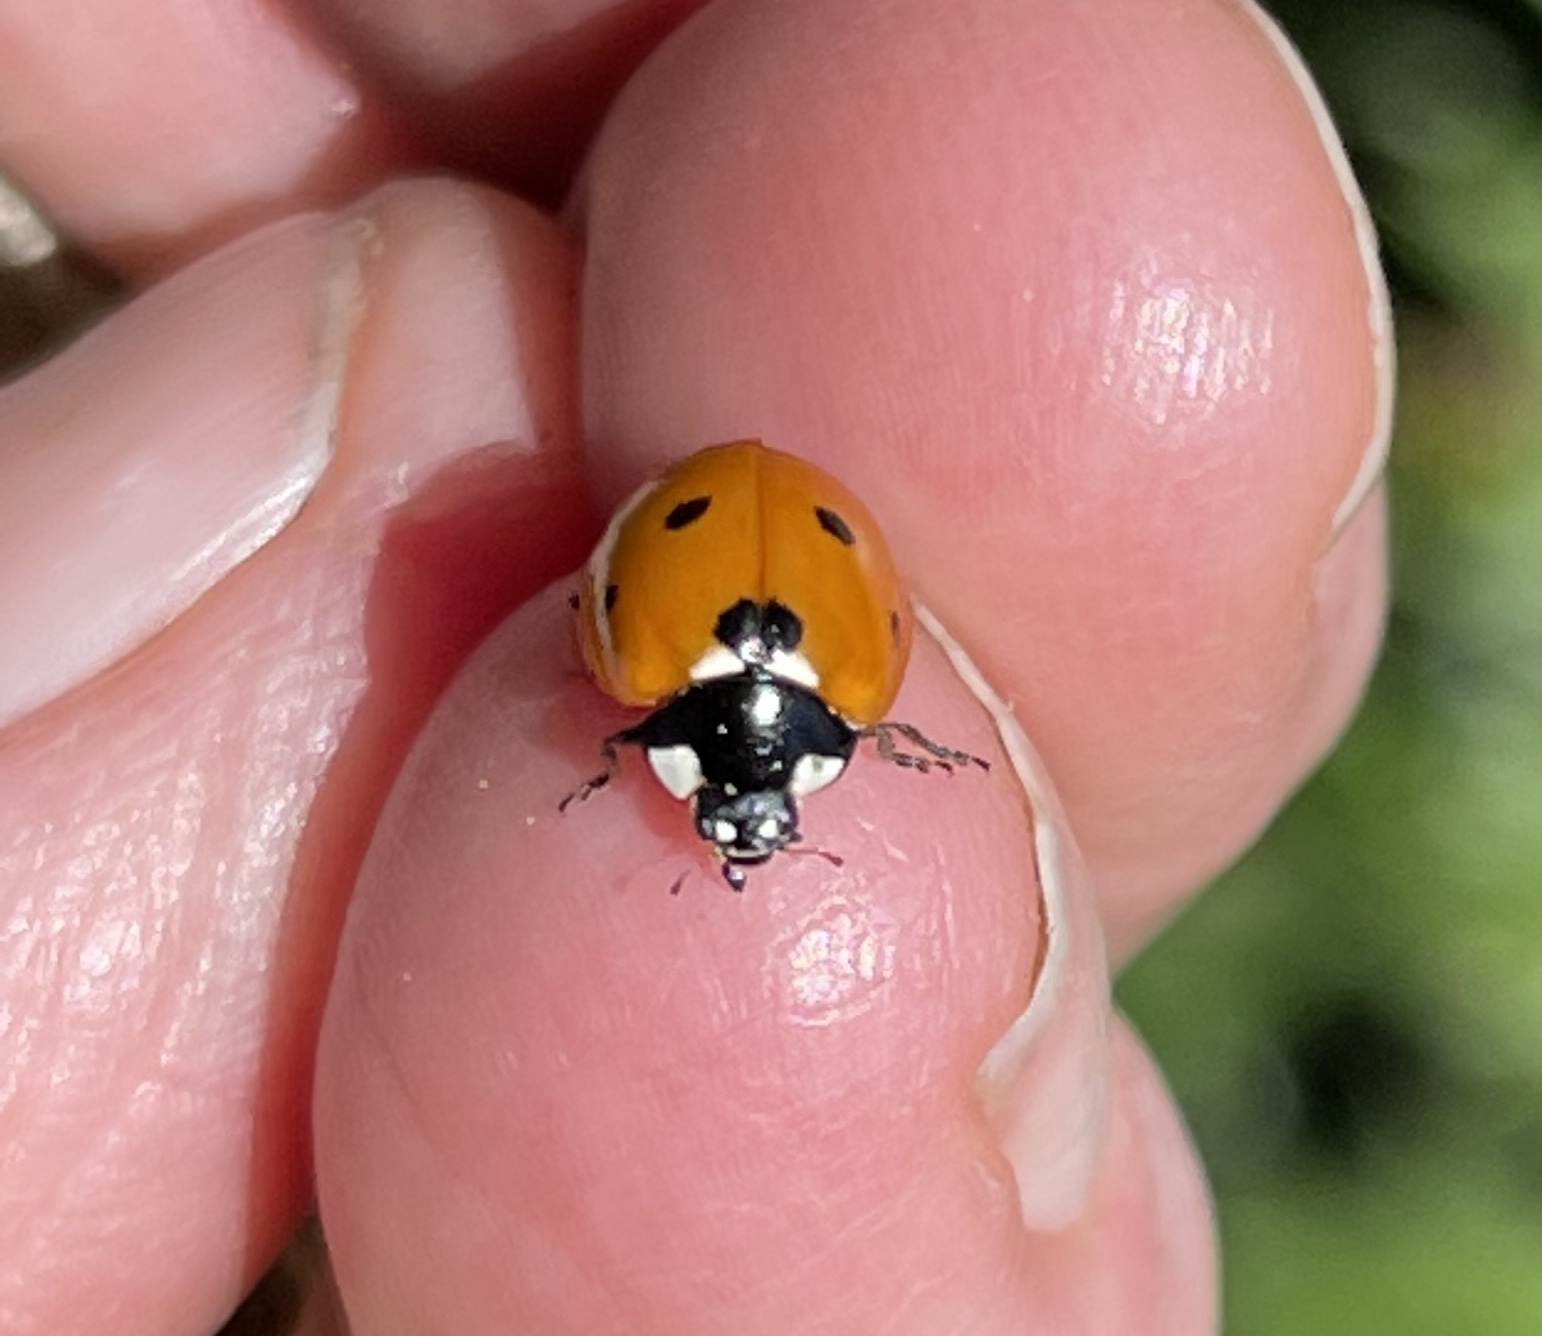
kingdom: Animalia
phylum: Arthropoda
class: Insecta
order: Coleoptera
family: Coccinellidae
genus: Coccinella
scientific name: Coccinella septempunctata
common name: Sevenspotted lady beetle
